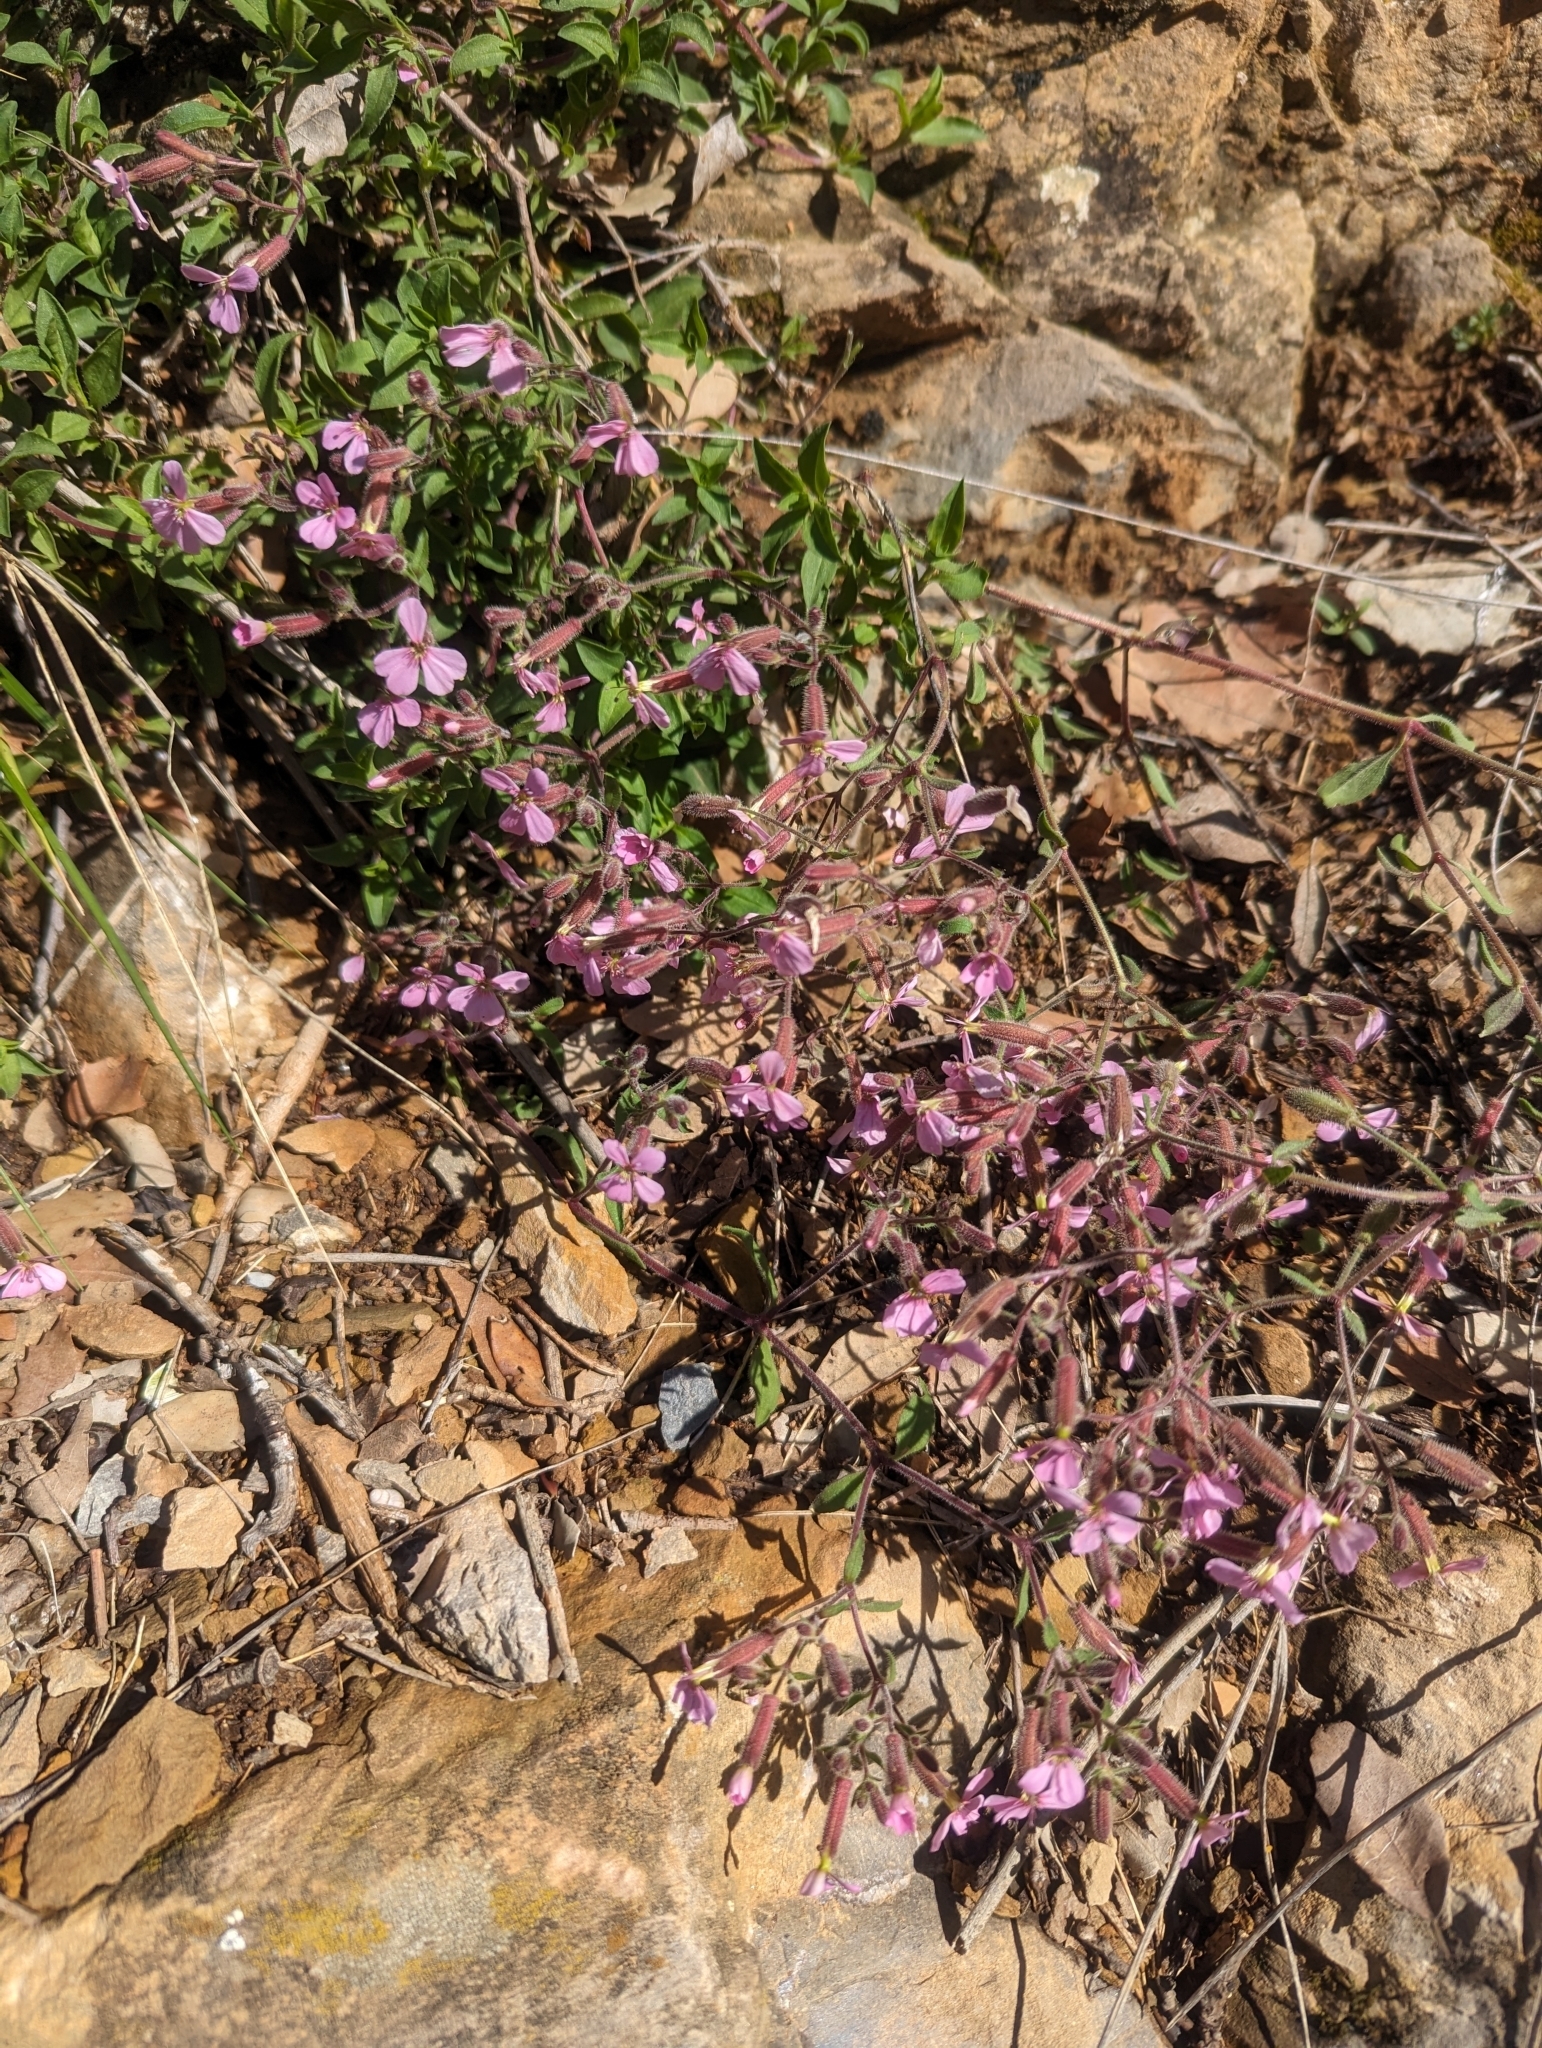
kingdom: Plantae
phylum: Tracheophyta
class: Magnoliopsida
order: Caryophyllales
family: Caryophyllaceae
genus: Saponaria
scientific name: Saponaria ocymoides
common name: Rock soapwort
